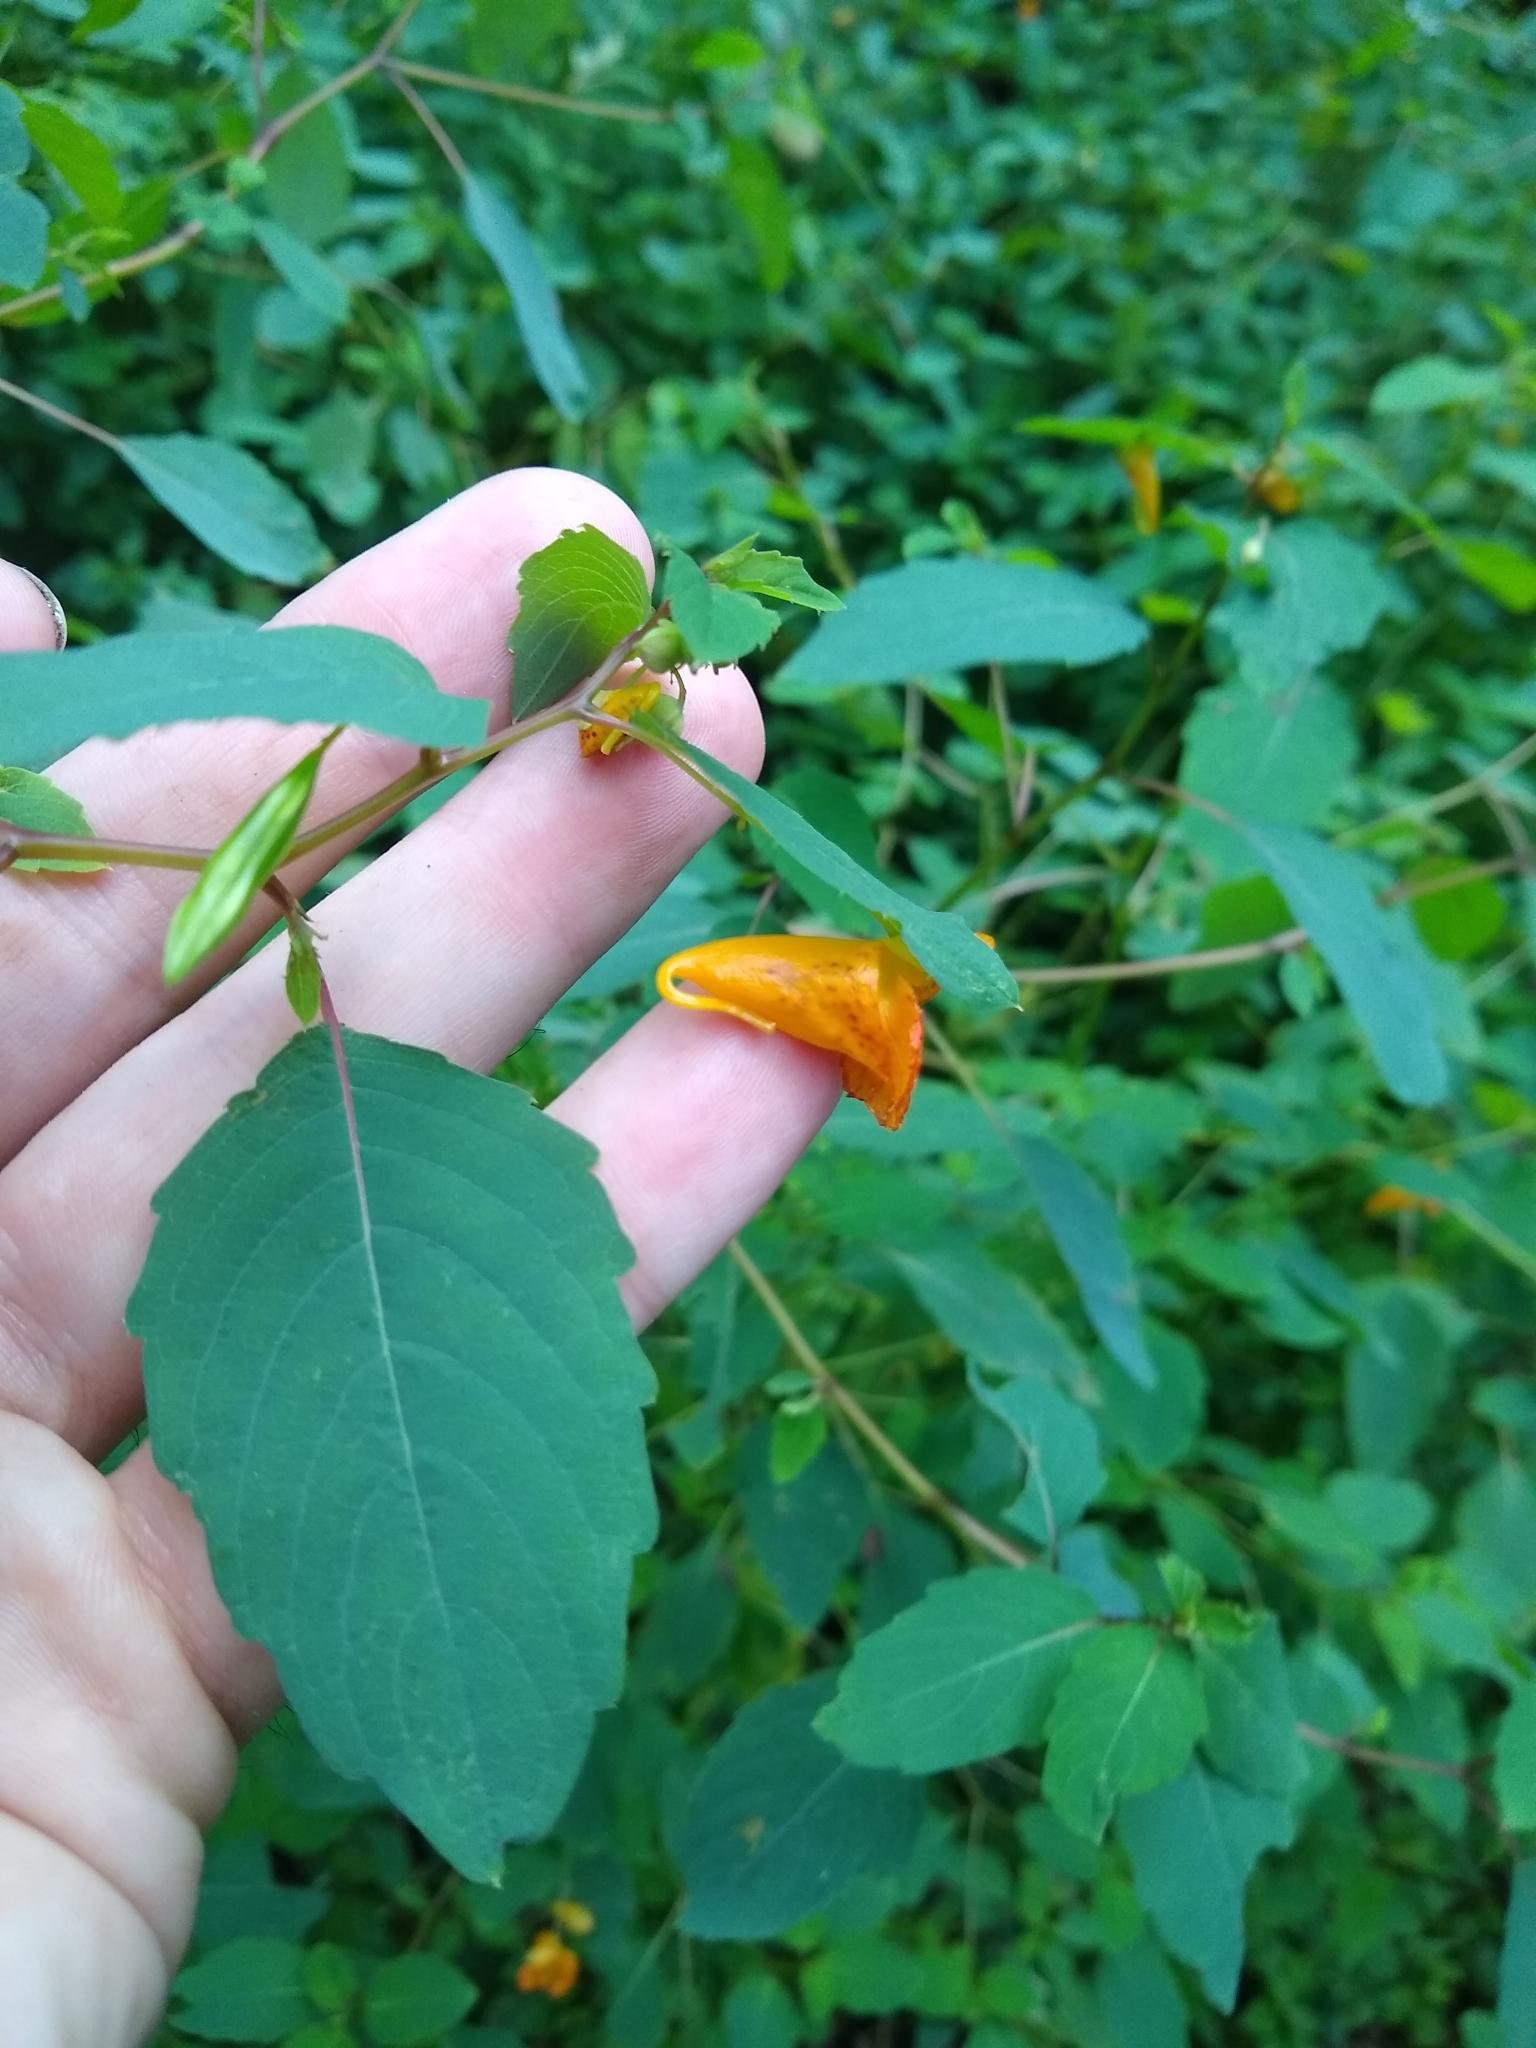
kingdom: Plantae
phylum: Tracheophyta
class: Magnoliopsida
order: Ericales
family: Balsaminaceae
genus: Impatiens
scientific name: Impatiens capensis
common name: Orange balsam
